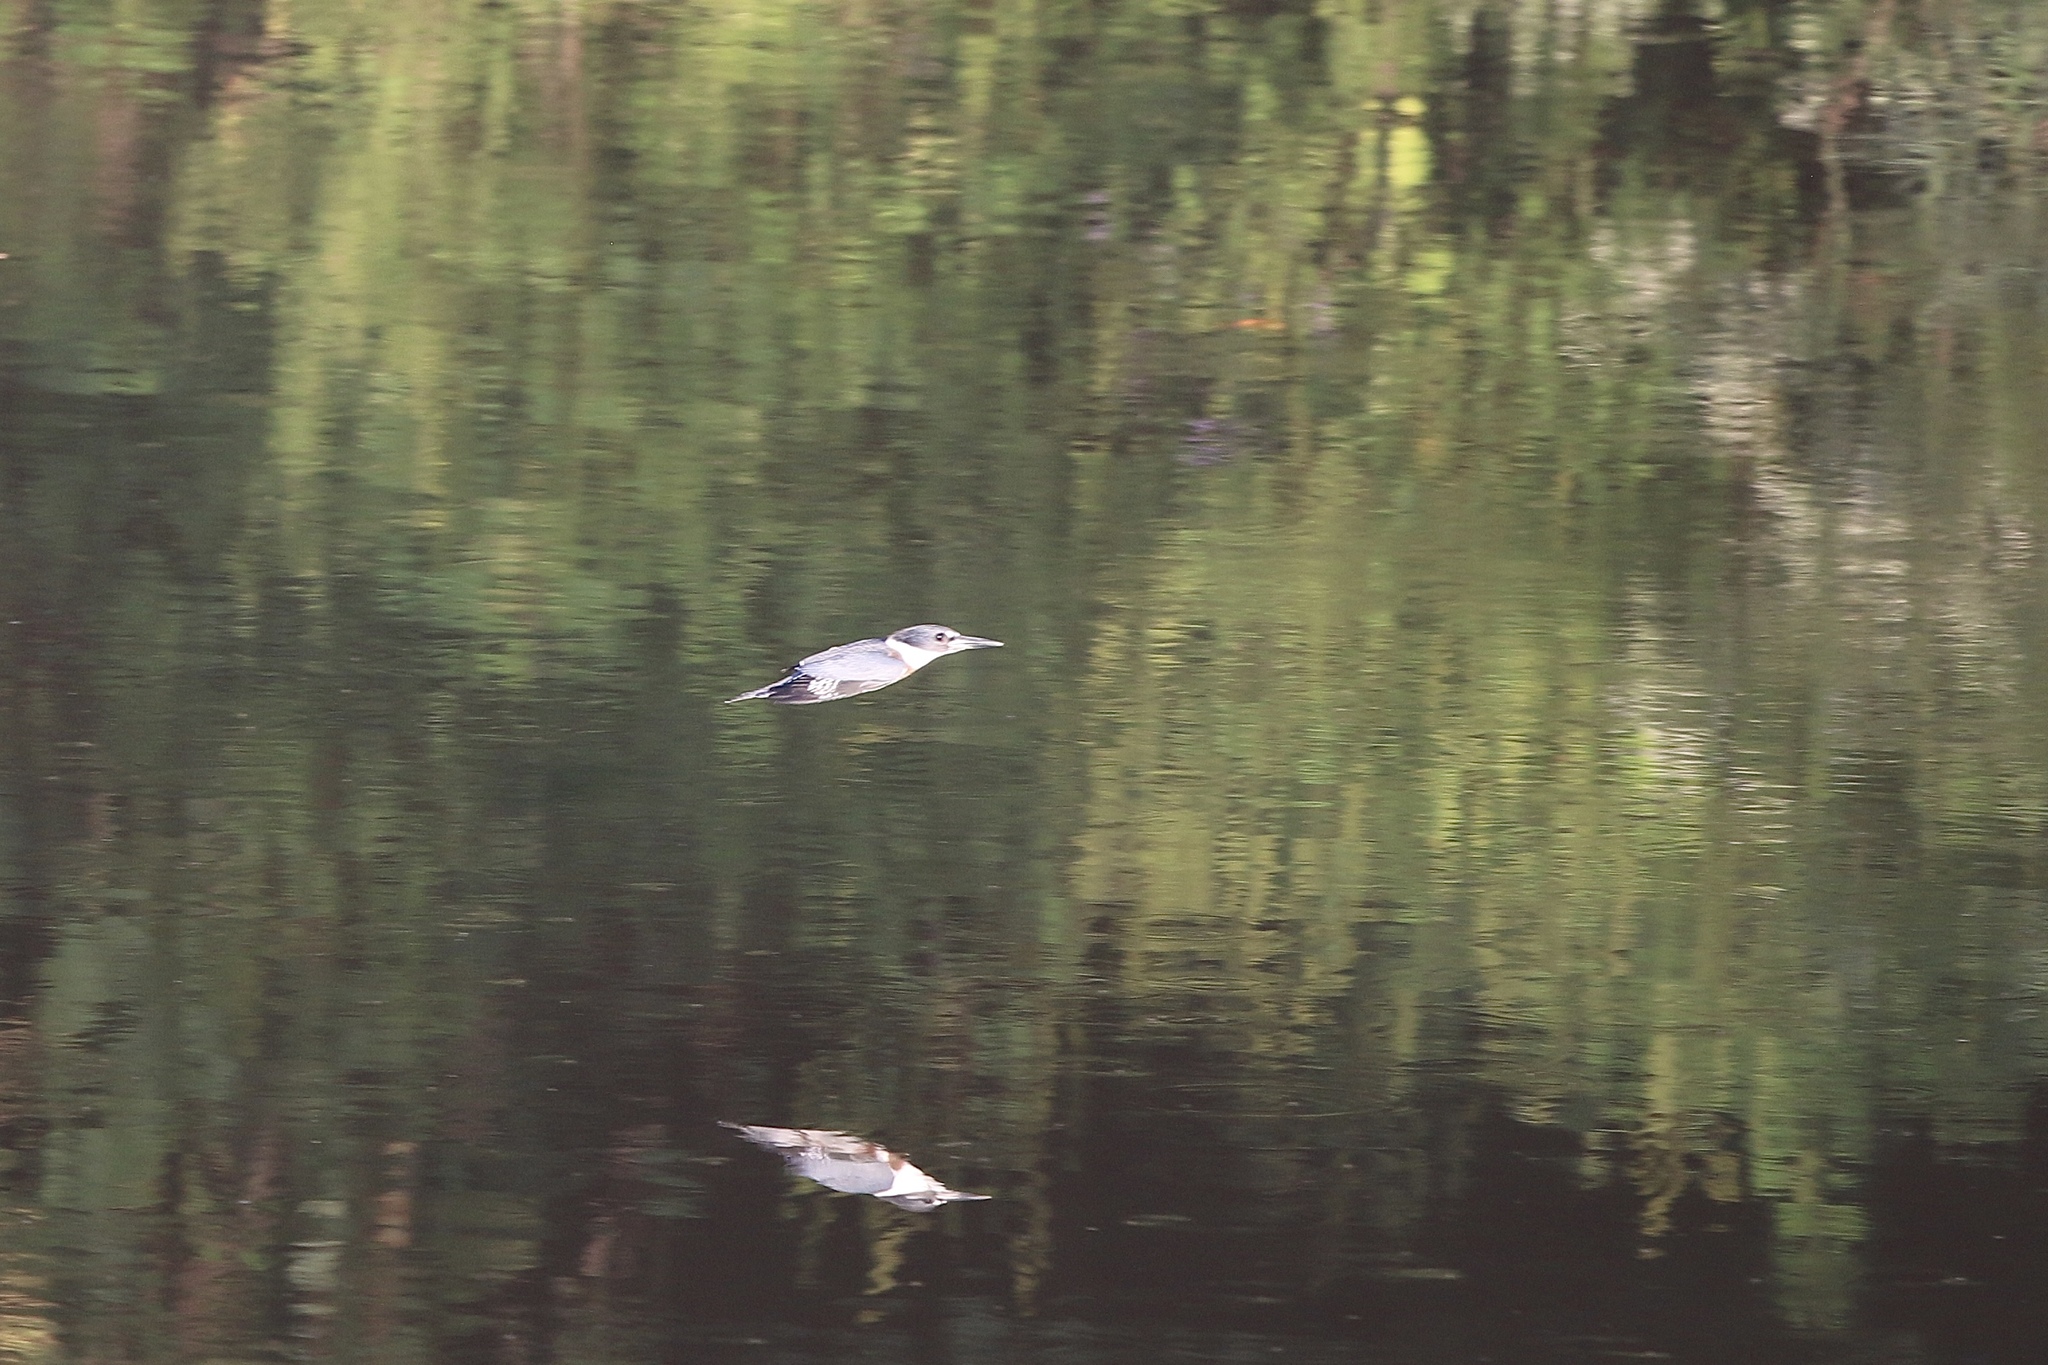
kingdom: Animalia
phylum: Chordata
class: Aves
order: Coraciiformes
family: Alcedinidae
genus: Megaceryle
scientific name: Megaceryle alcyon
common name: Belted kingfisher
